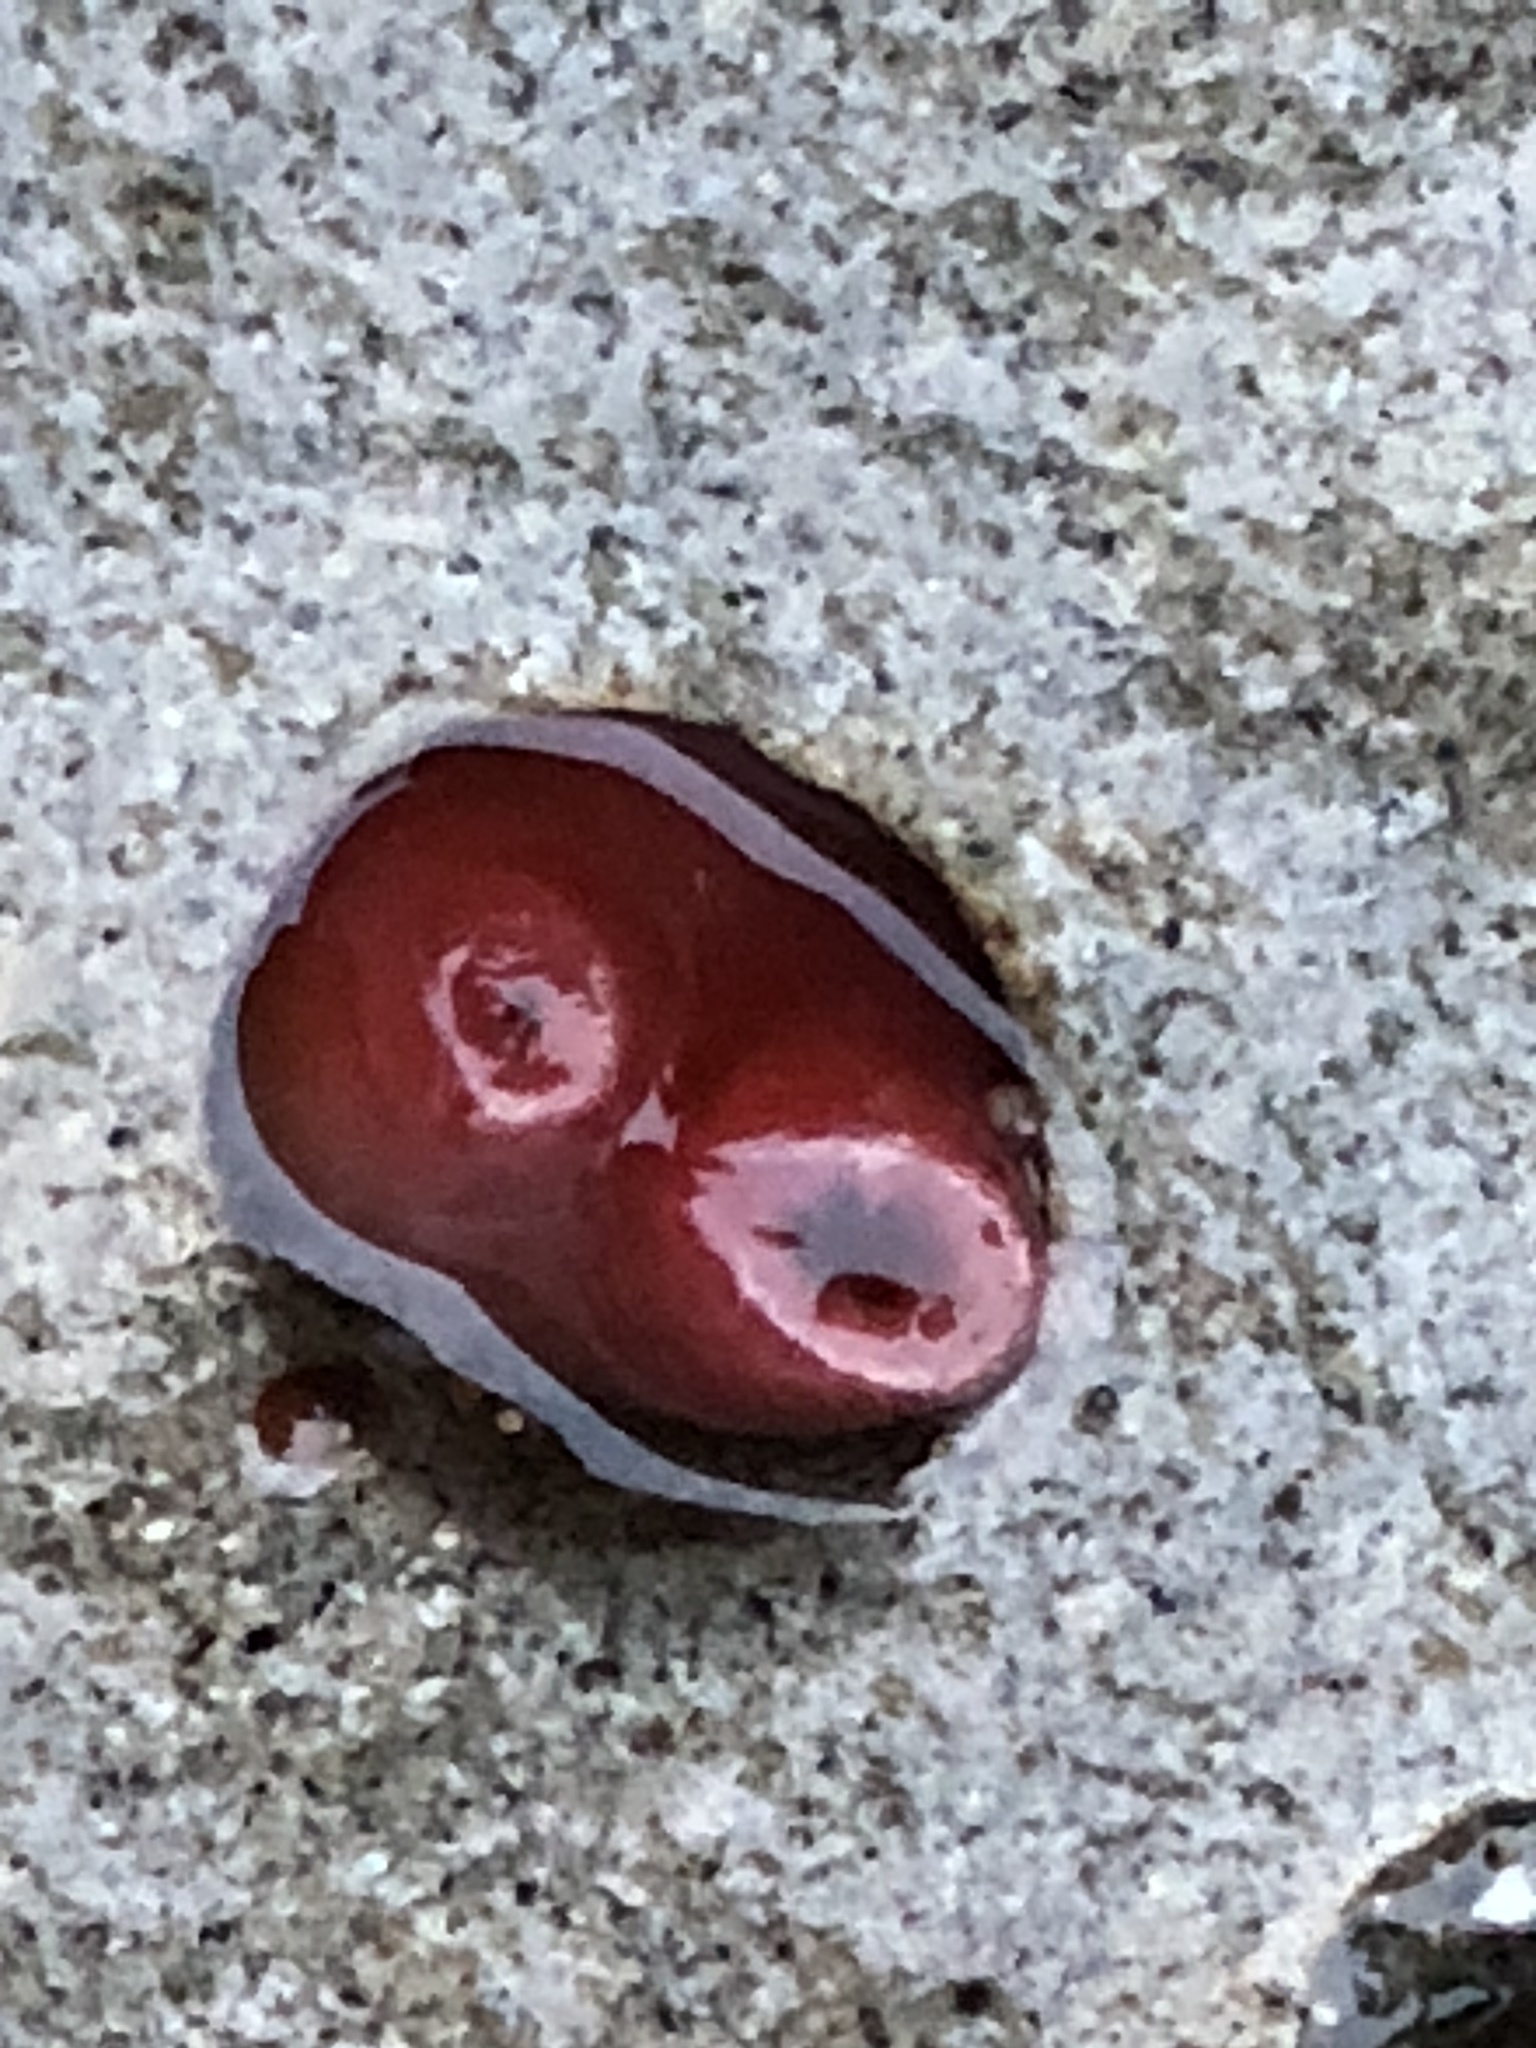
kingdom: Animalia
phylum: Mollusca
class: Bivalvia
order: Adapedonta
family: Hiatellidae
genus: Hiatella
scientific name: Hiatella arctica
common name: Arctic hiatella
